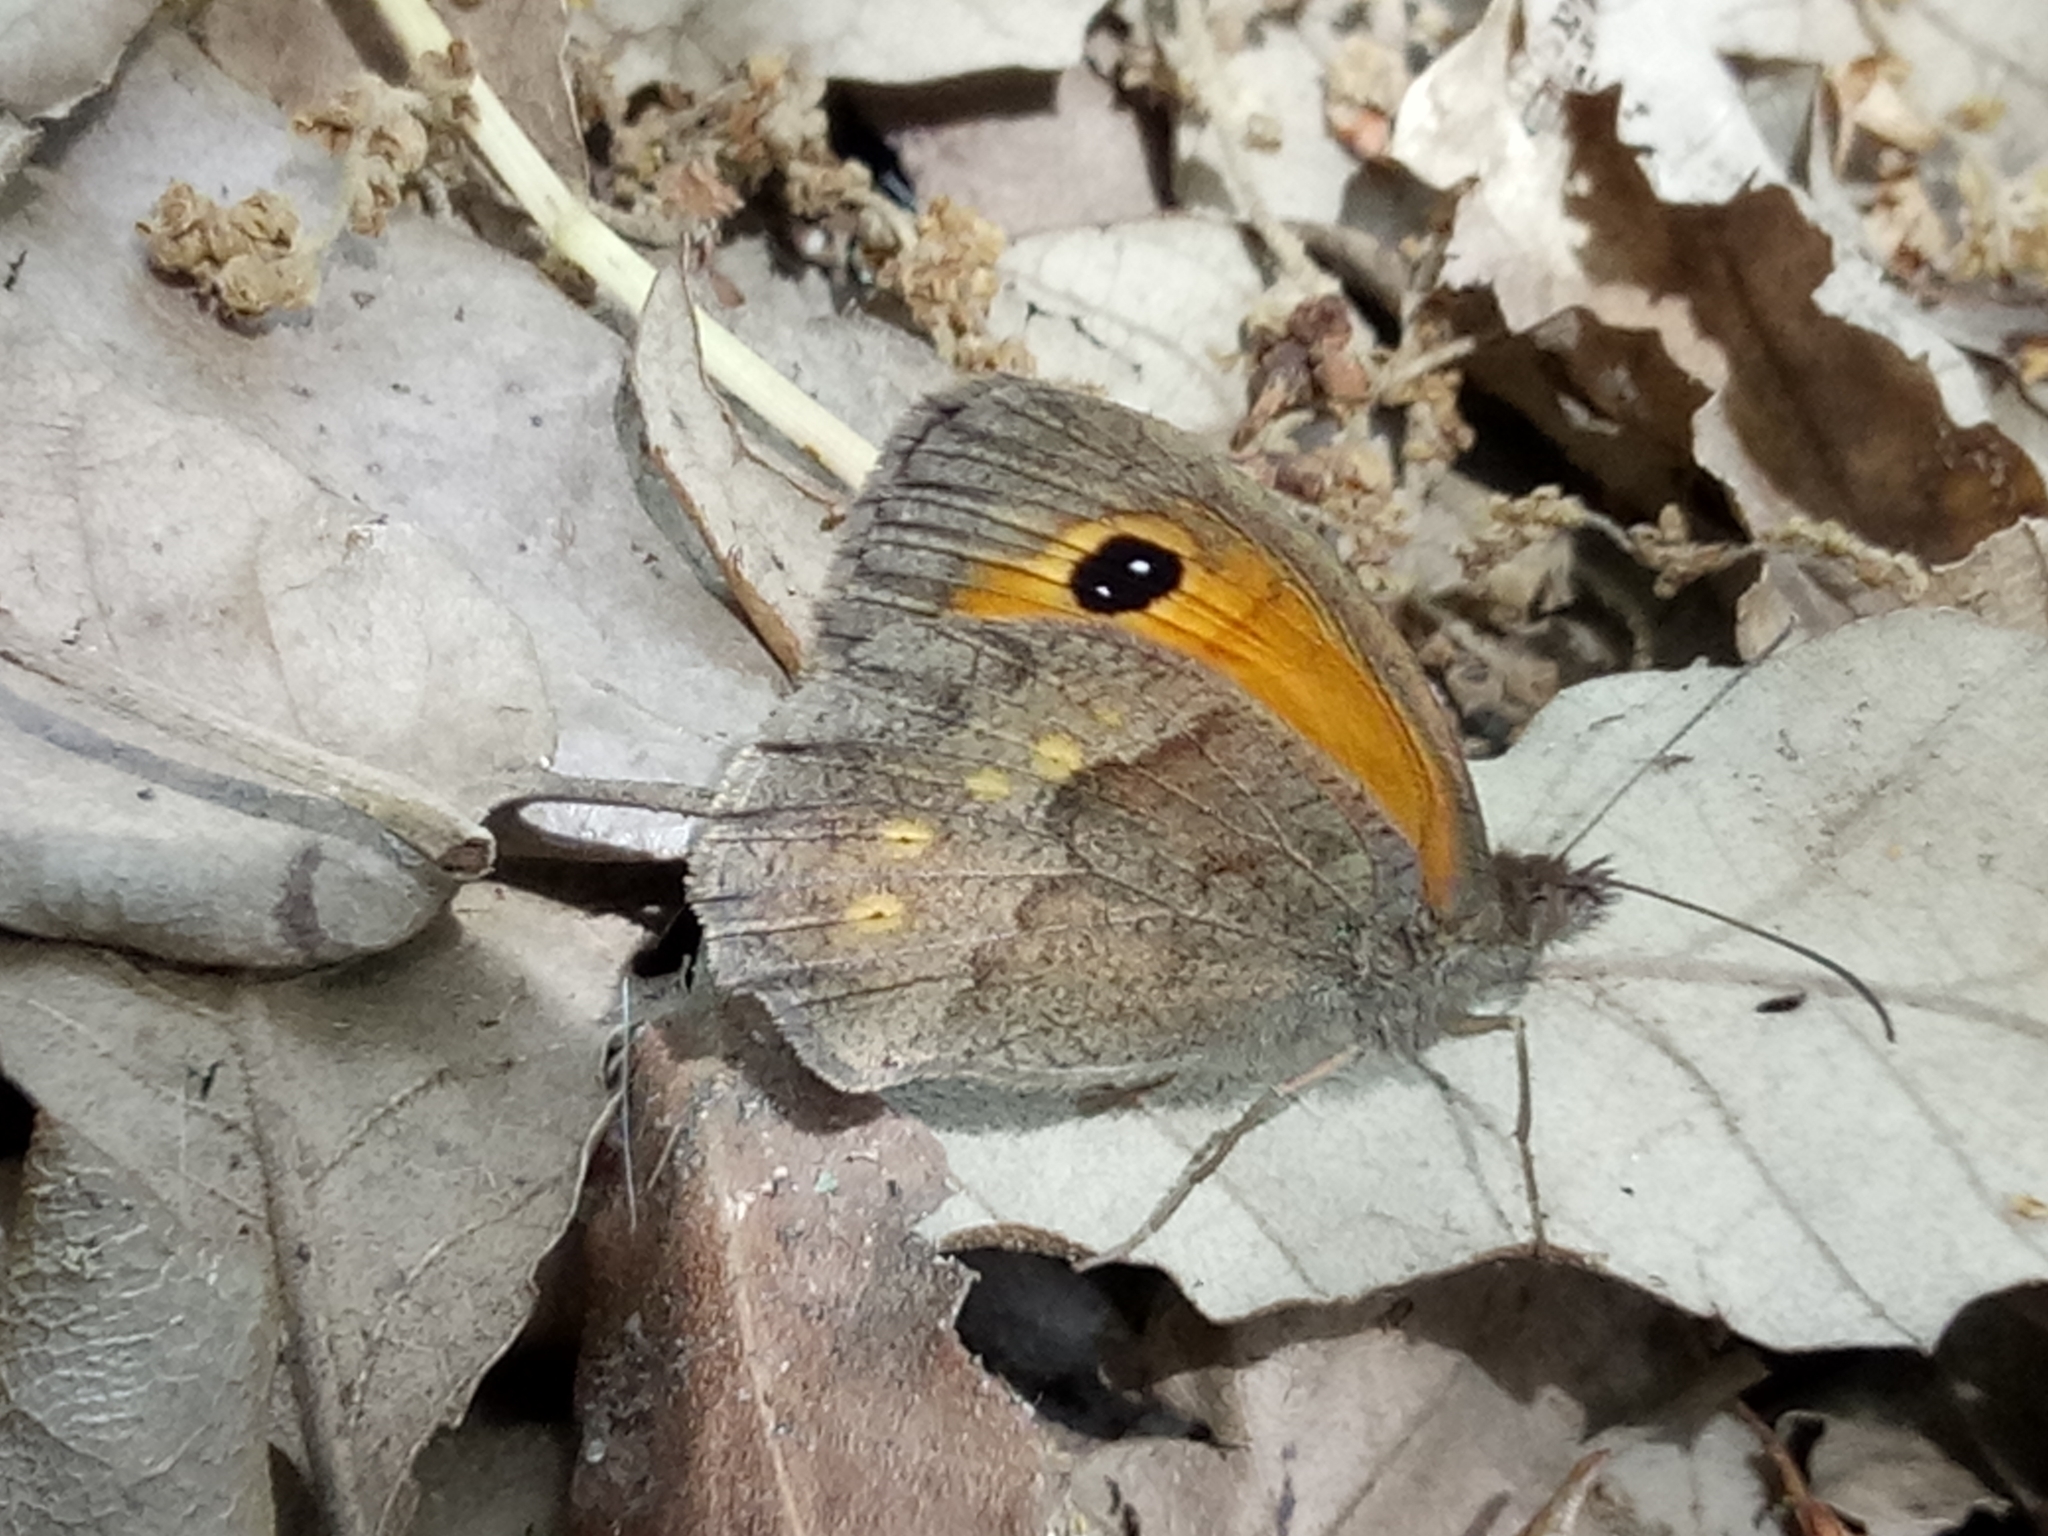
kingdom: Animalia
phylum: Arthropoda
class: Insecta
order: Lepidoptera
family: Nymphalidae
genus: Pyronia
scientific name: Pyronia janiroides
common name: False meadow brown
